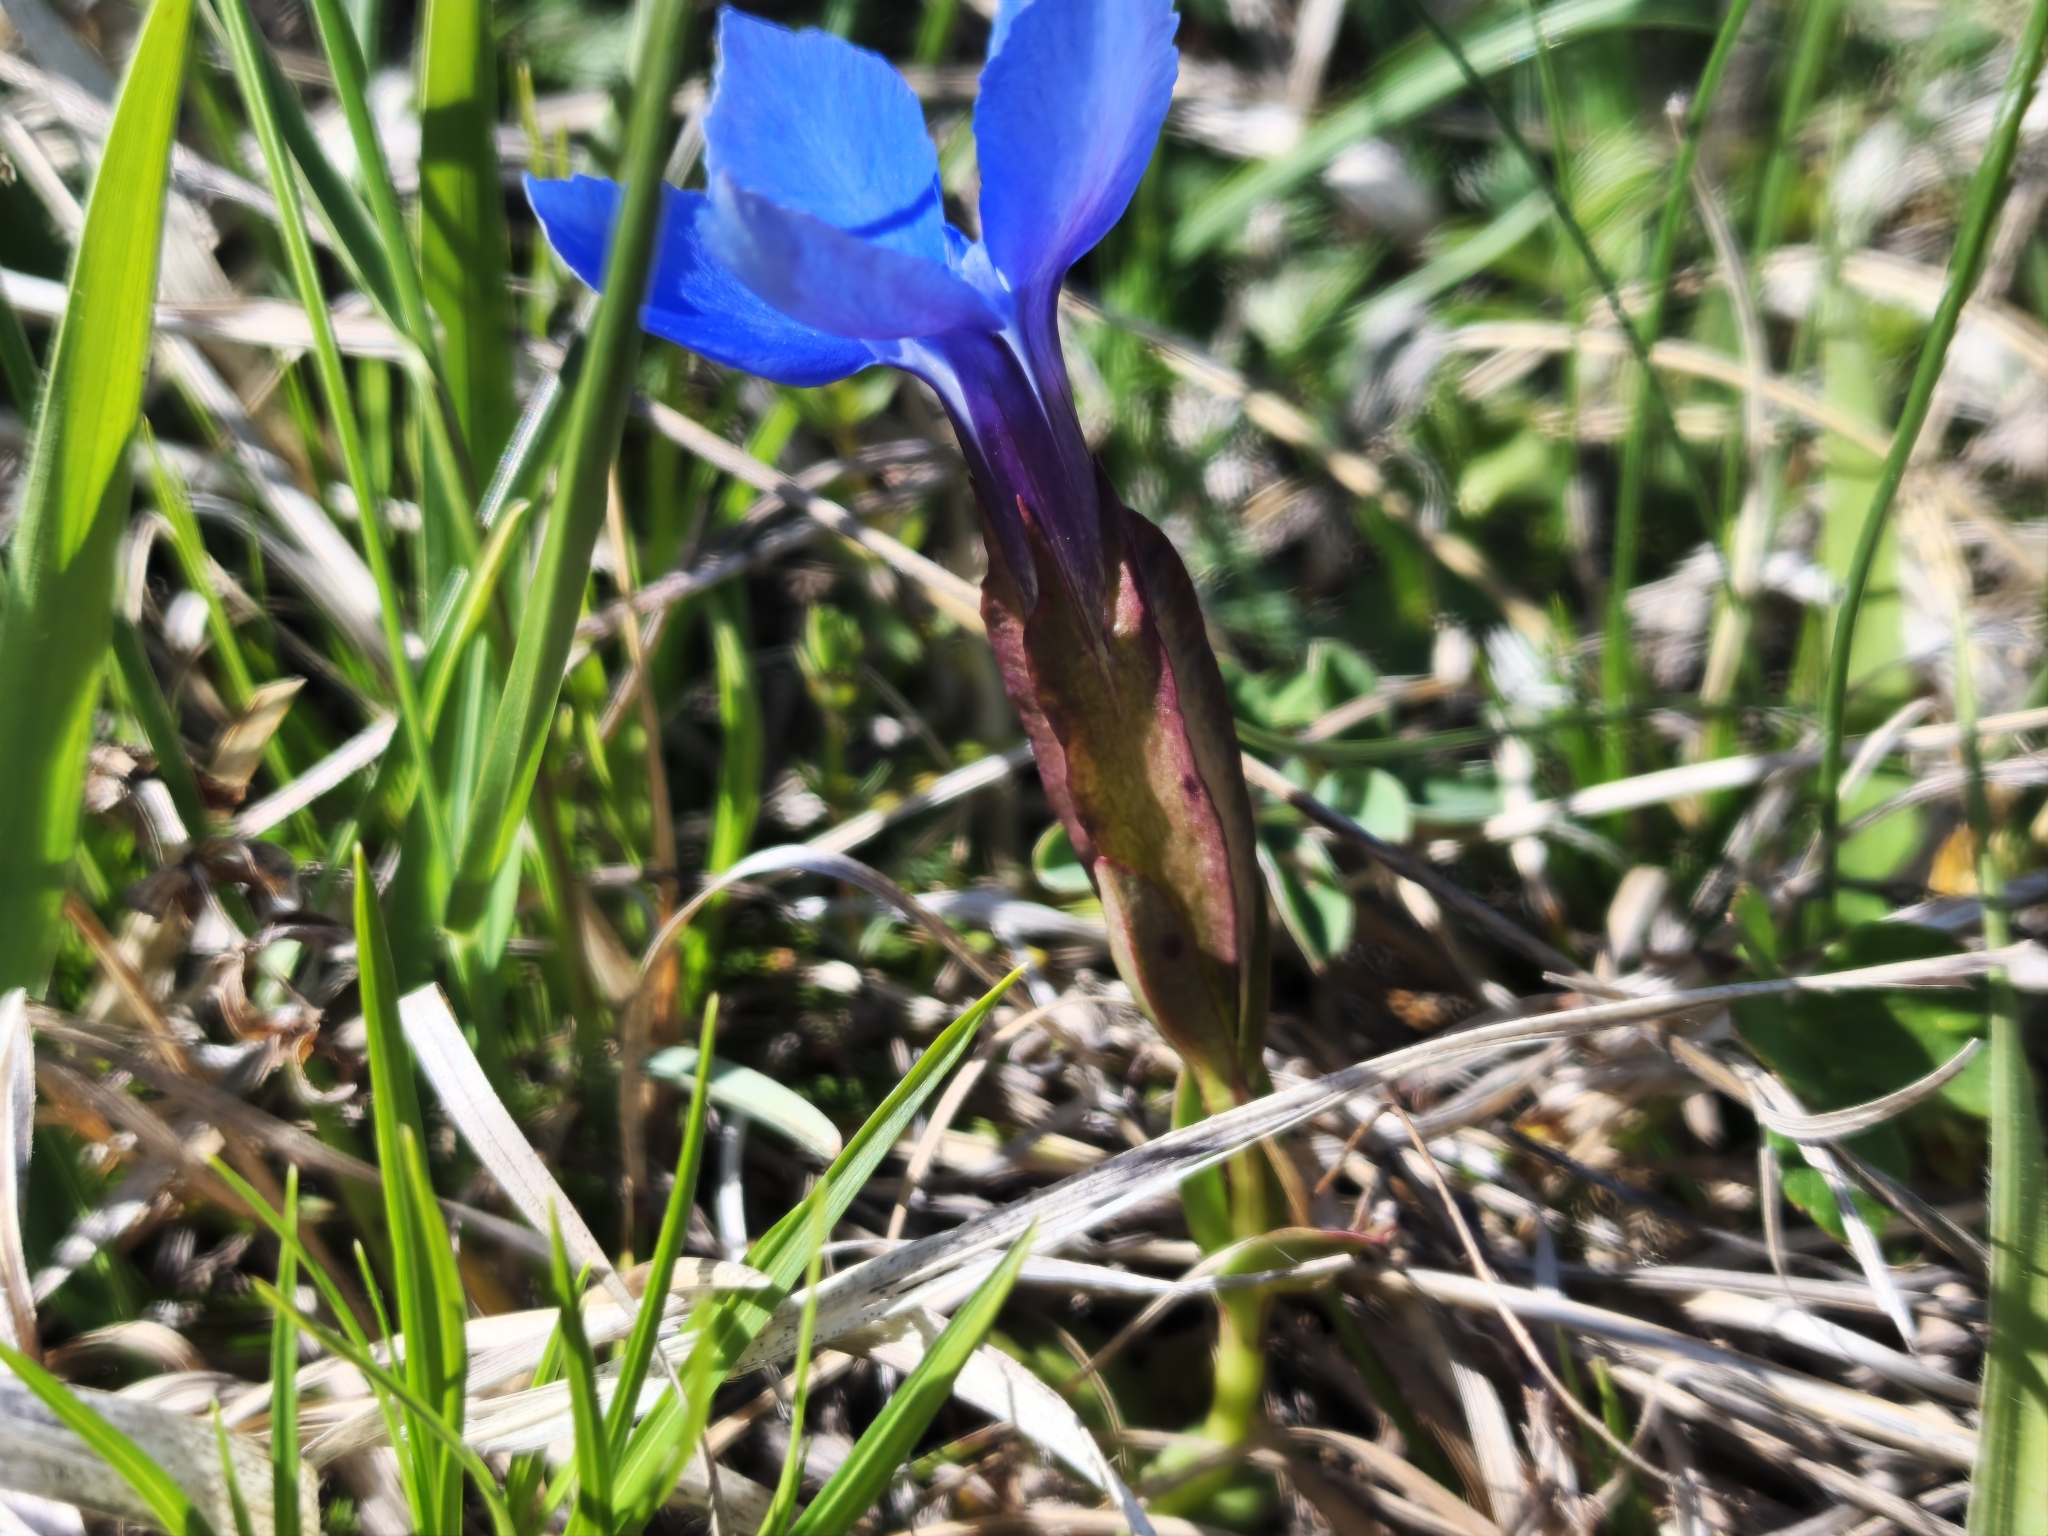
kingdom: Plantae
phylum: Tracheophyta
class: Magnoliopsida
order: Gentianales
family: Gentianaceae
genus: Gentiana
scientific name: Gentiana verna
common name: Spring gentian
